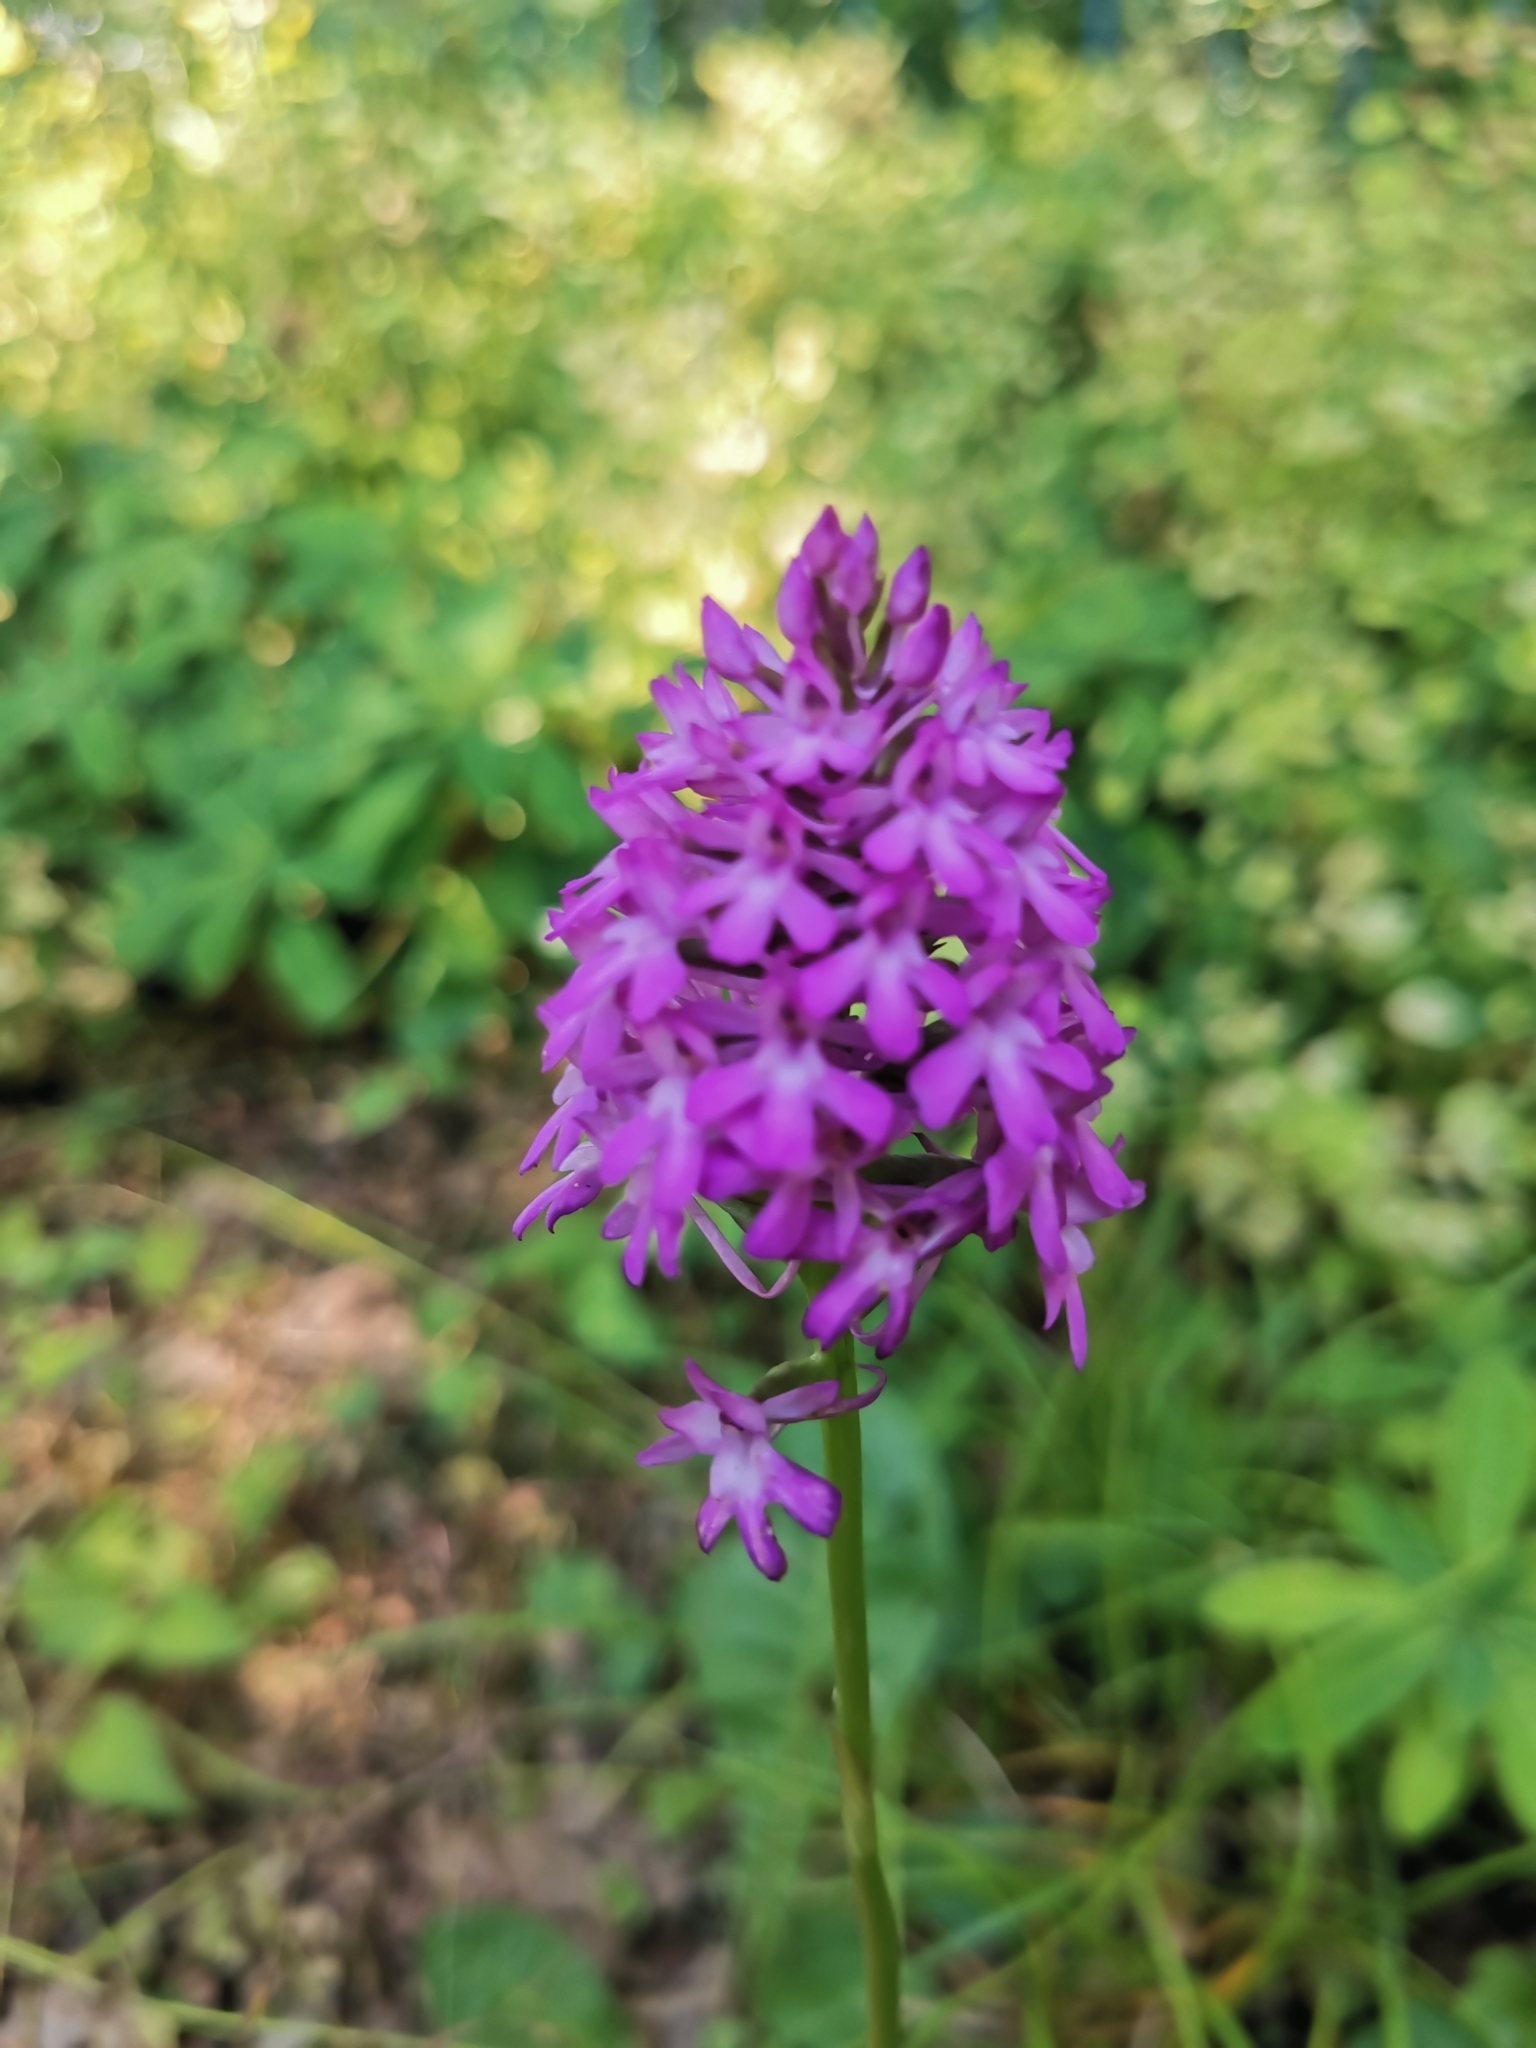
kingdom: Plantae
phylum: Tracheophyta
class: Liliopsida
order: Asparagales
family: Orchidaceae
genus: Anacamptis
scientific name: Anacamptis pyramidalis
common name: Pyramidal orchid
